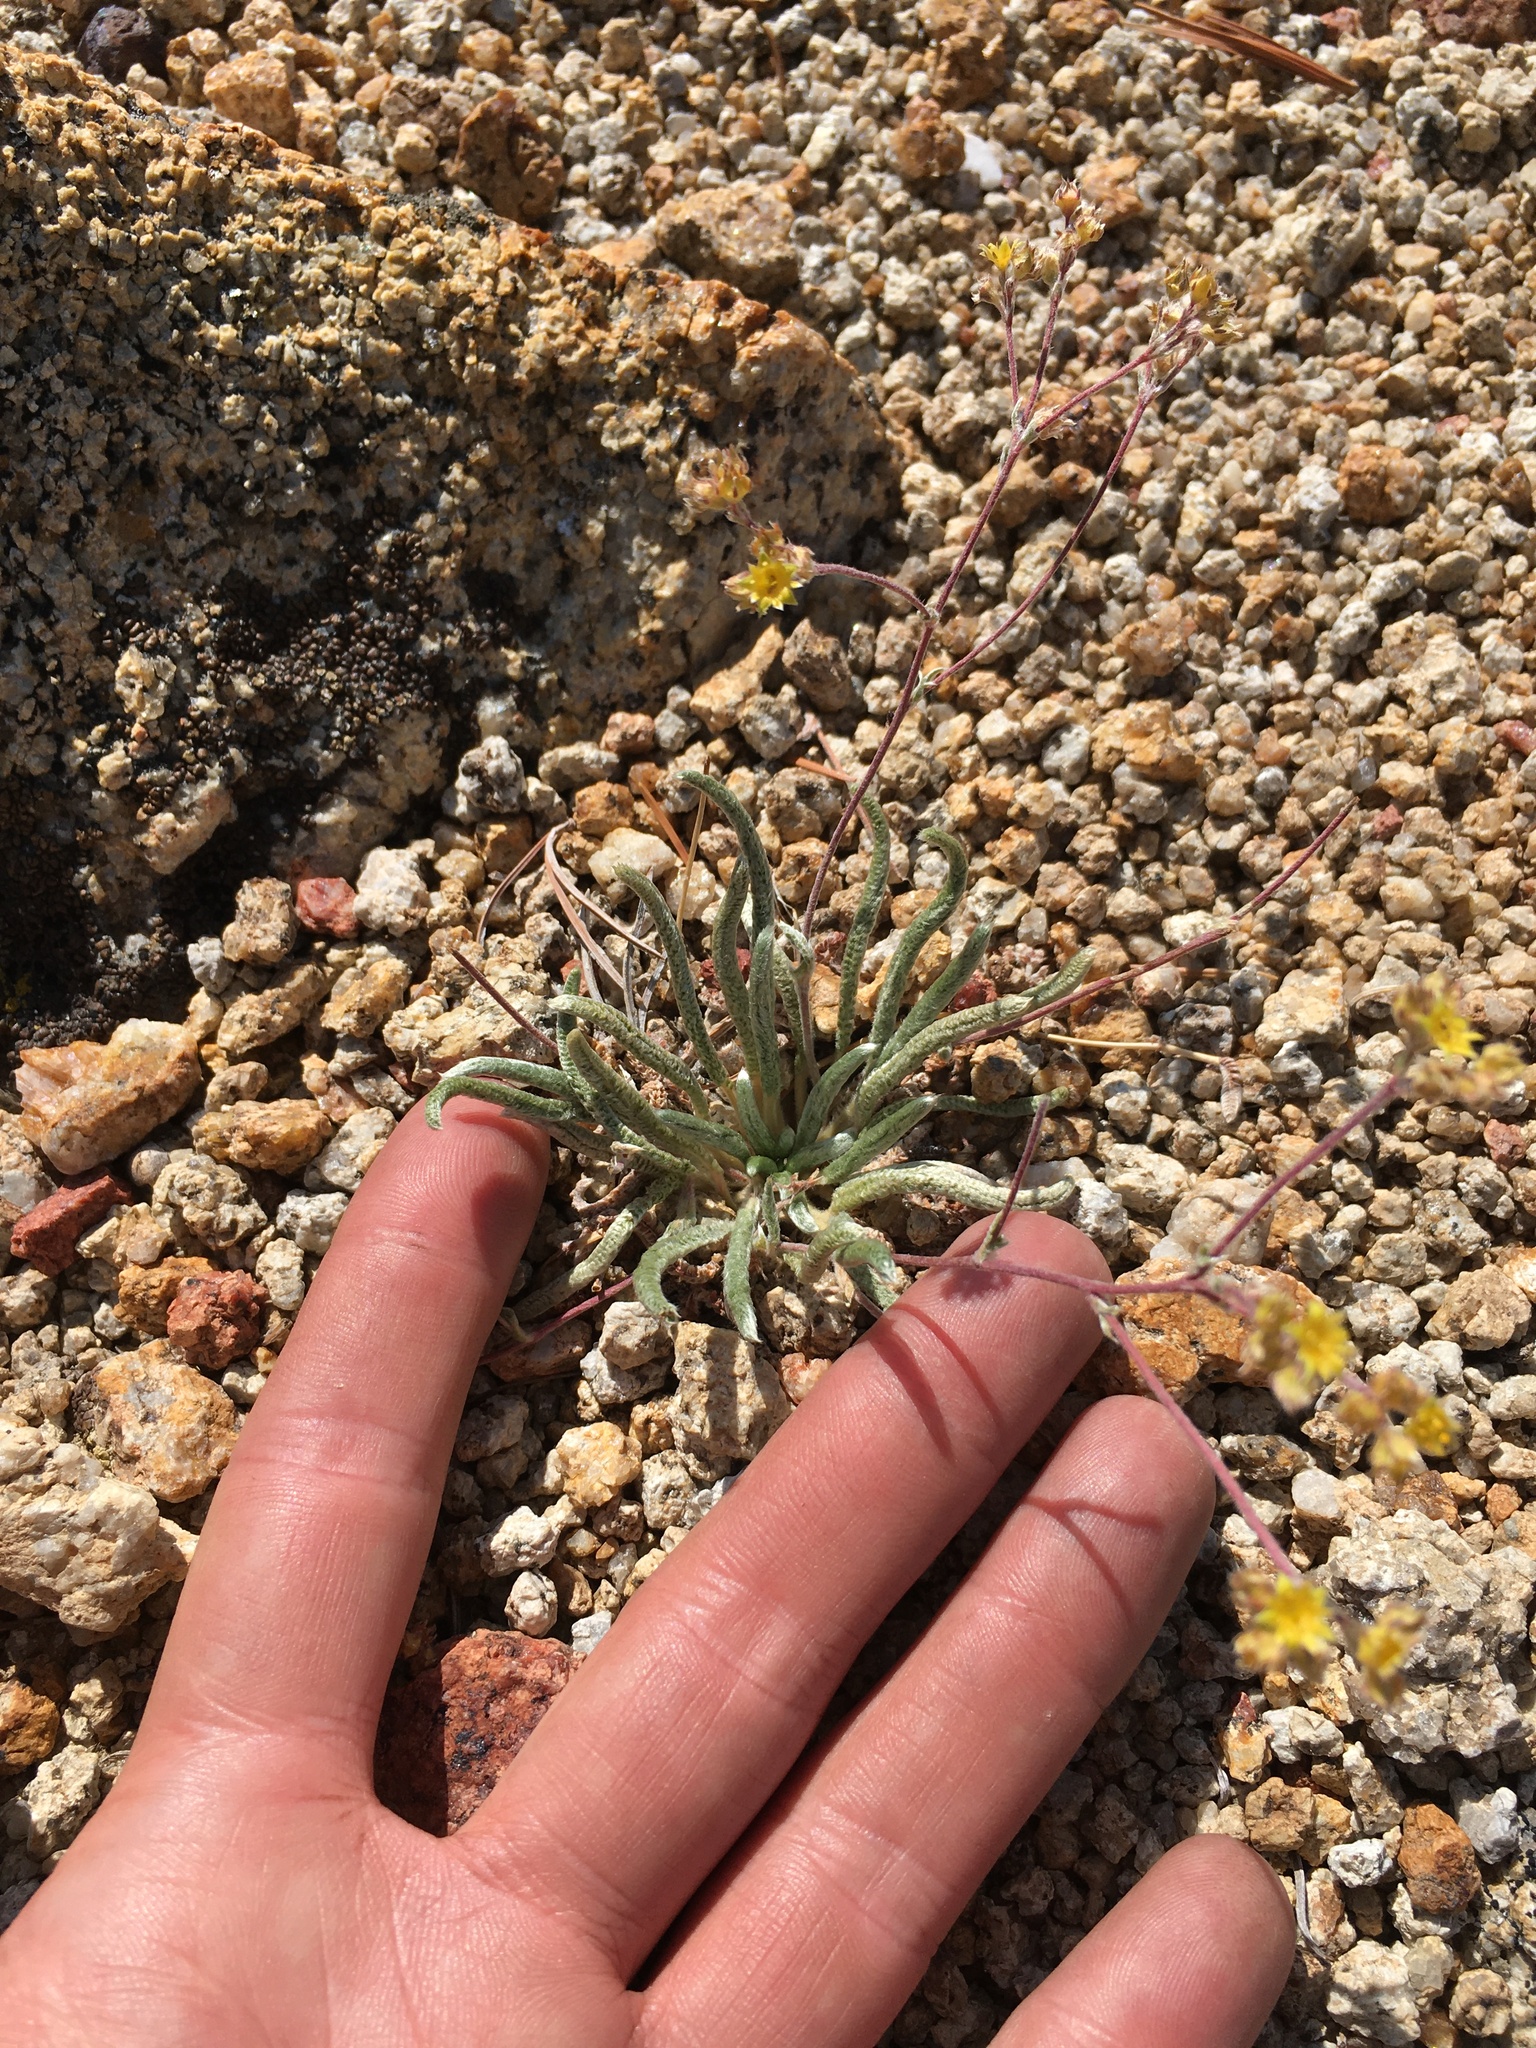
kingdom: Plantae
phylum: Tracheophyta
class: Magnoliopsida
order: Rosales
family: Rosaceae
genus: Potentilla
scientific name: Potentilla muirii
